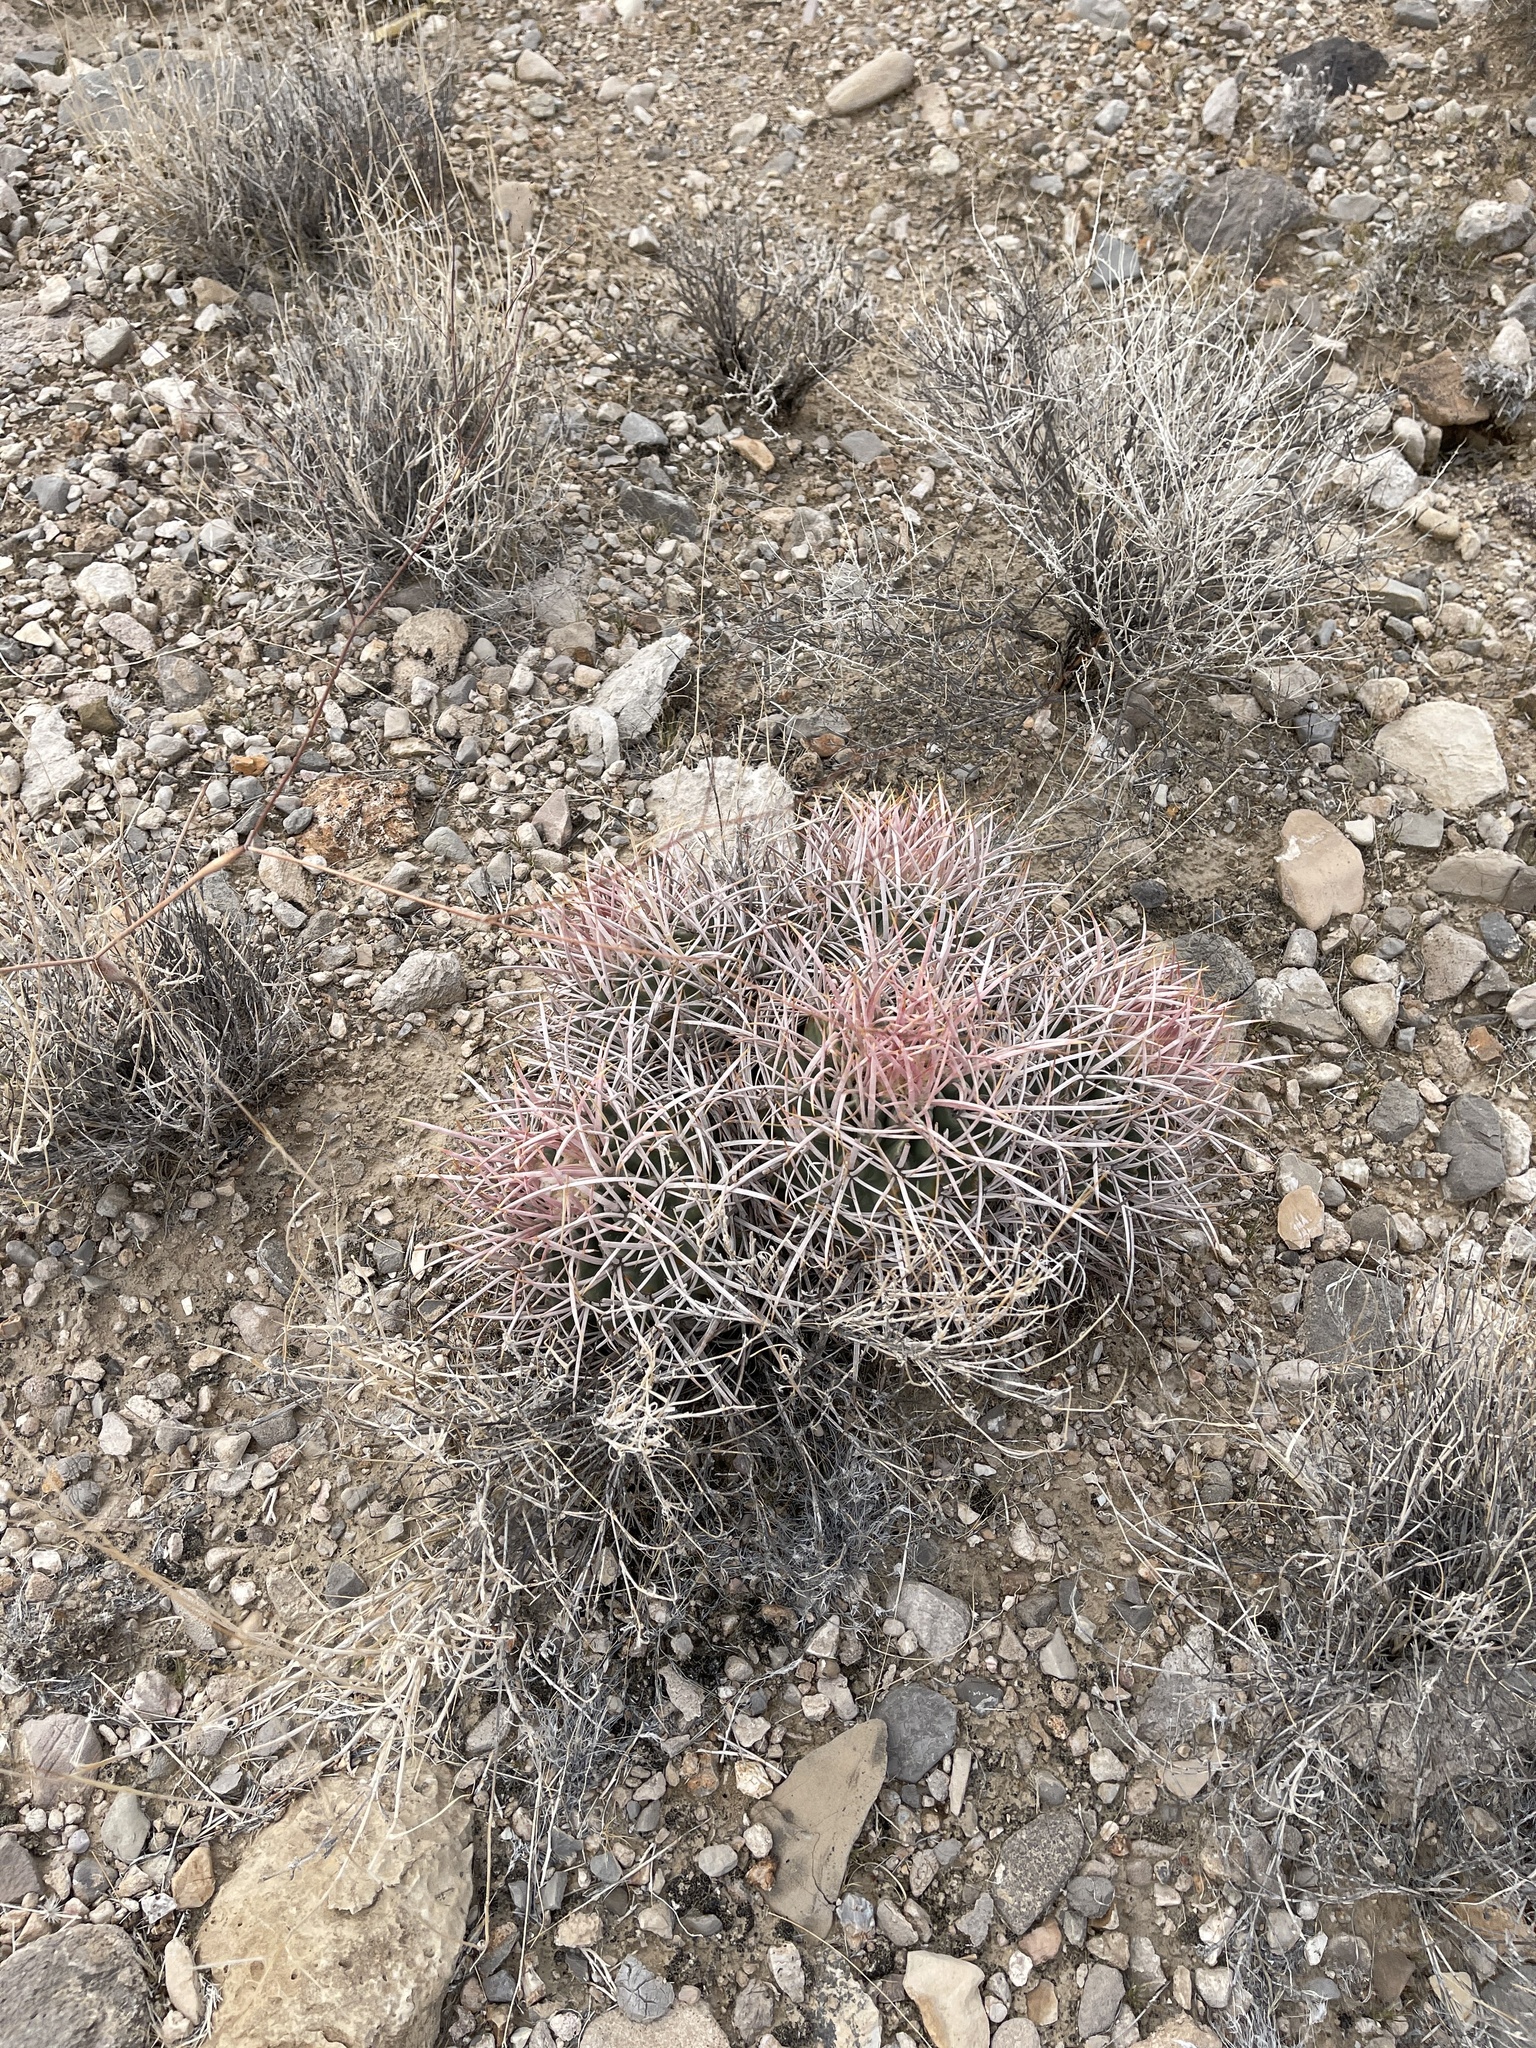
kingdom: Plantae
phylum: Tracheophyta
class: Magnoliopsida
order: Caryophyllales
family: Cactaceae
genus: Echinocactus
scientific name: Echinocactus polycephalus
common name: Cottontop cactus
